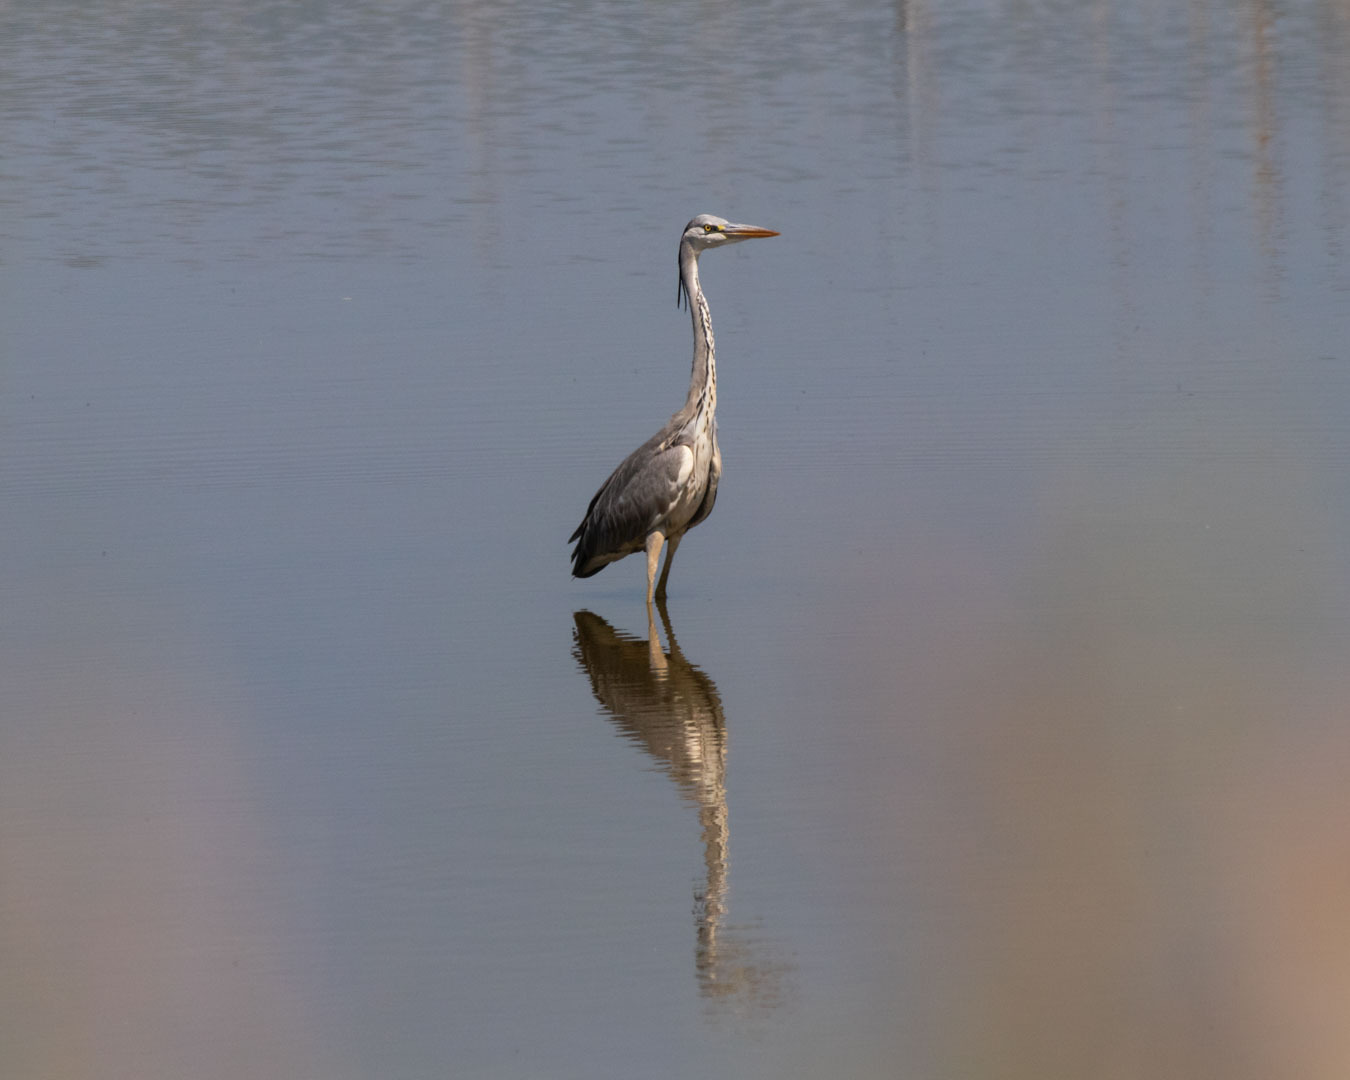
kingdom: Animalia
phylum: Chordata
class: Aves
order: Pelecaniformes
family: Ardeidae
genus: Ardea
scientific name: Ardea cinerea
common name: Grey heron
